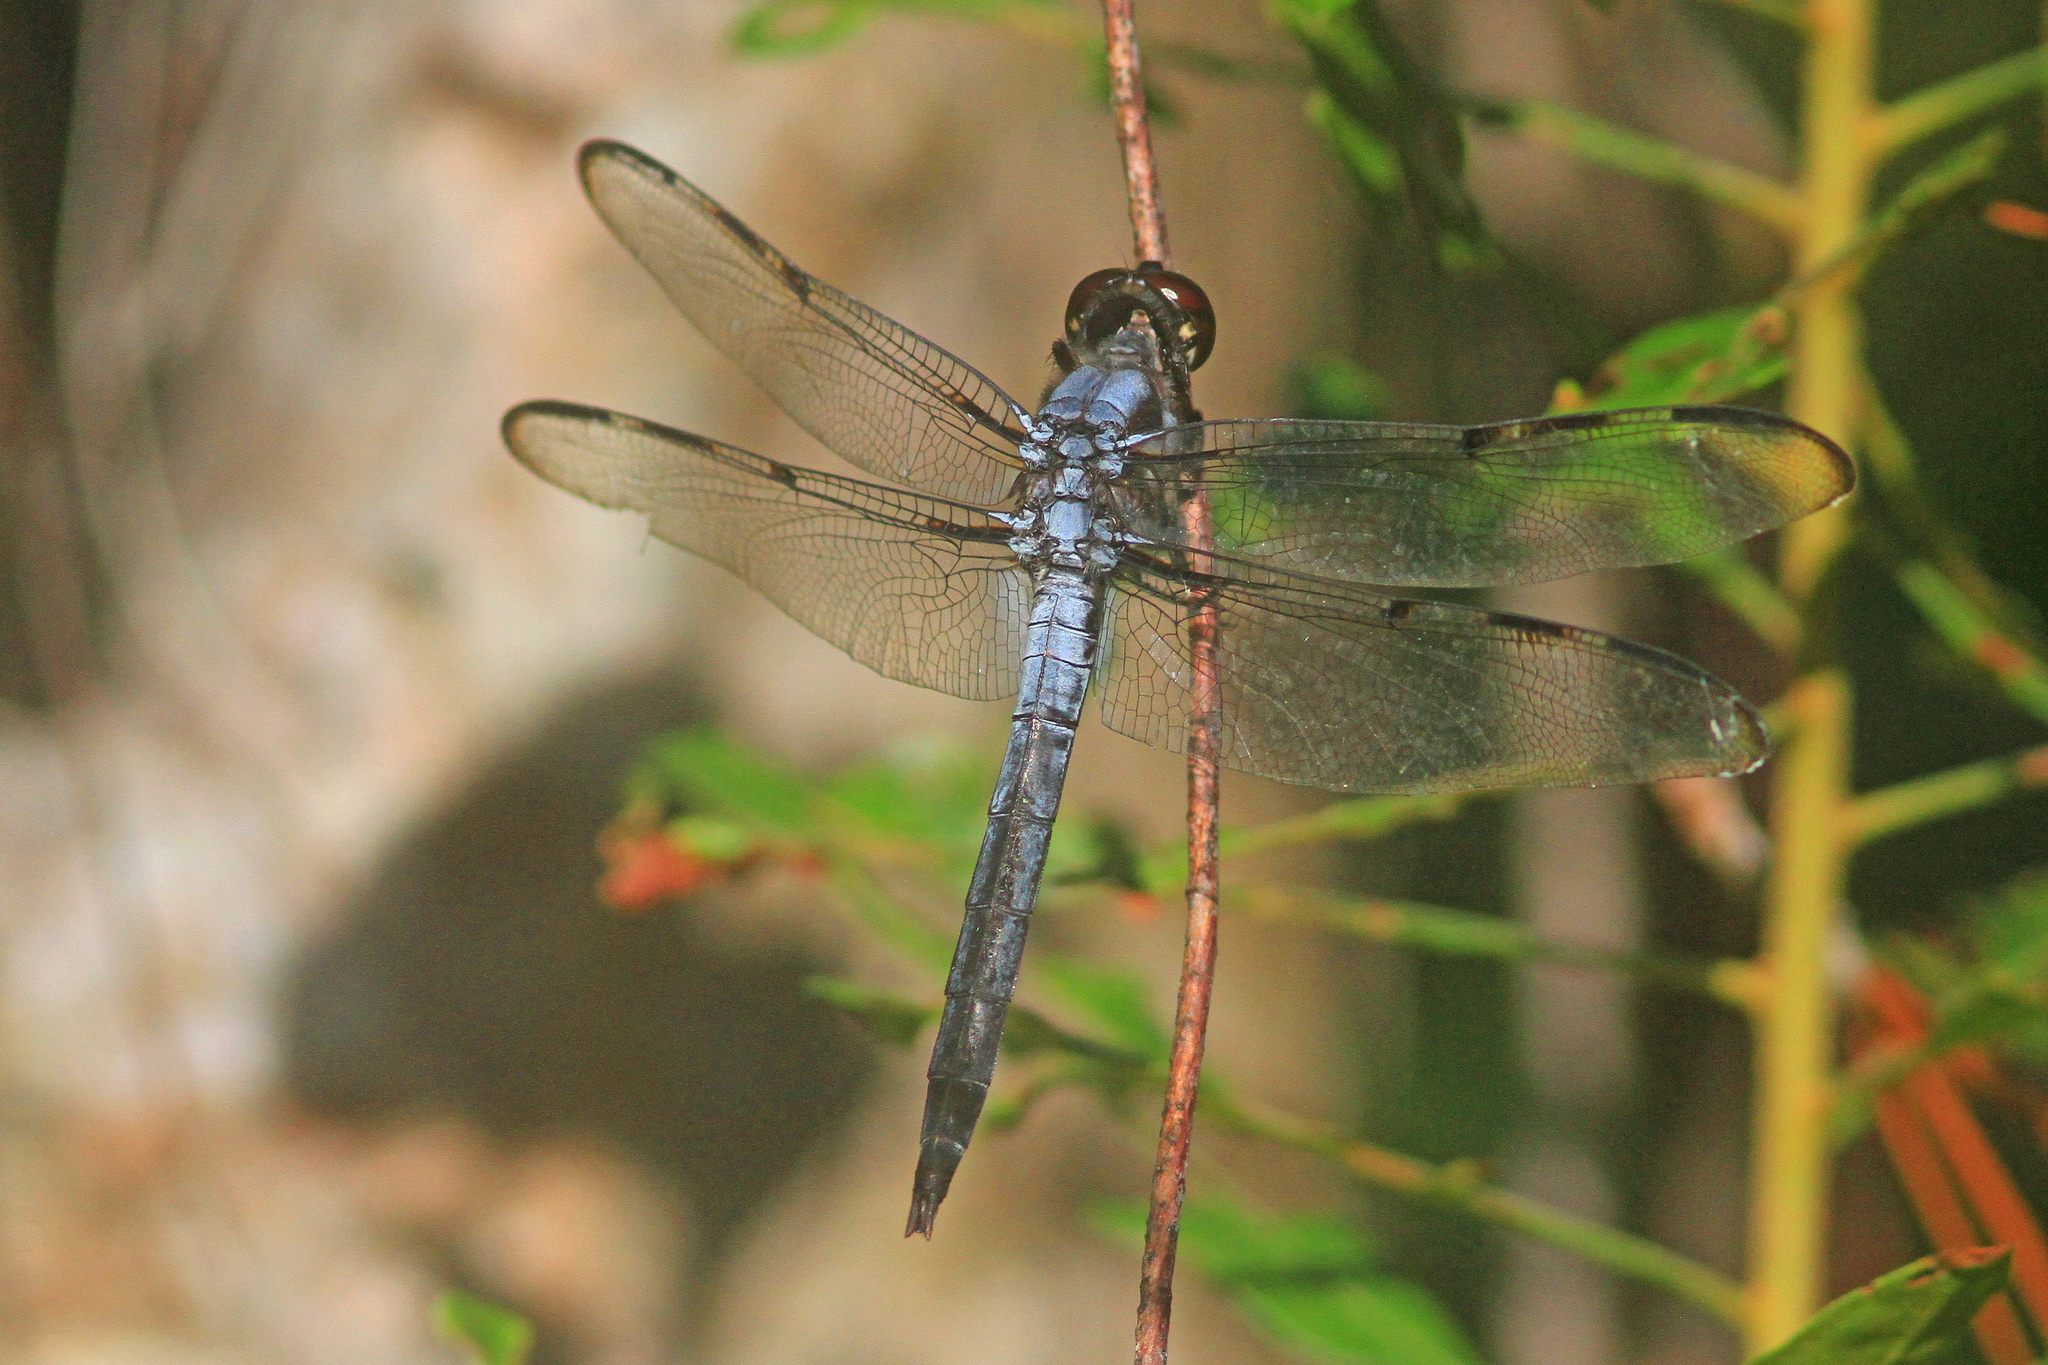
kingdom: Animalia
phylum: Arthropoda
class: Insecta
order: Odonata
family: Libellulidae
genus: Libellula
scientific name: Libellula axilena
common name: Bar-winged skimmer
